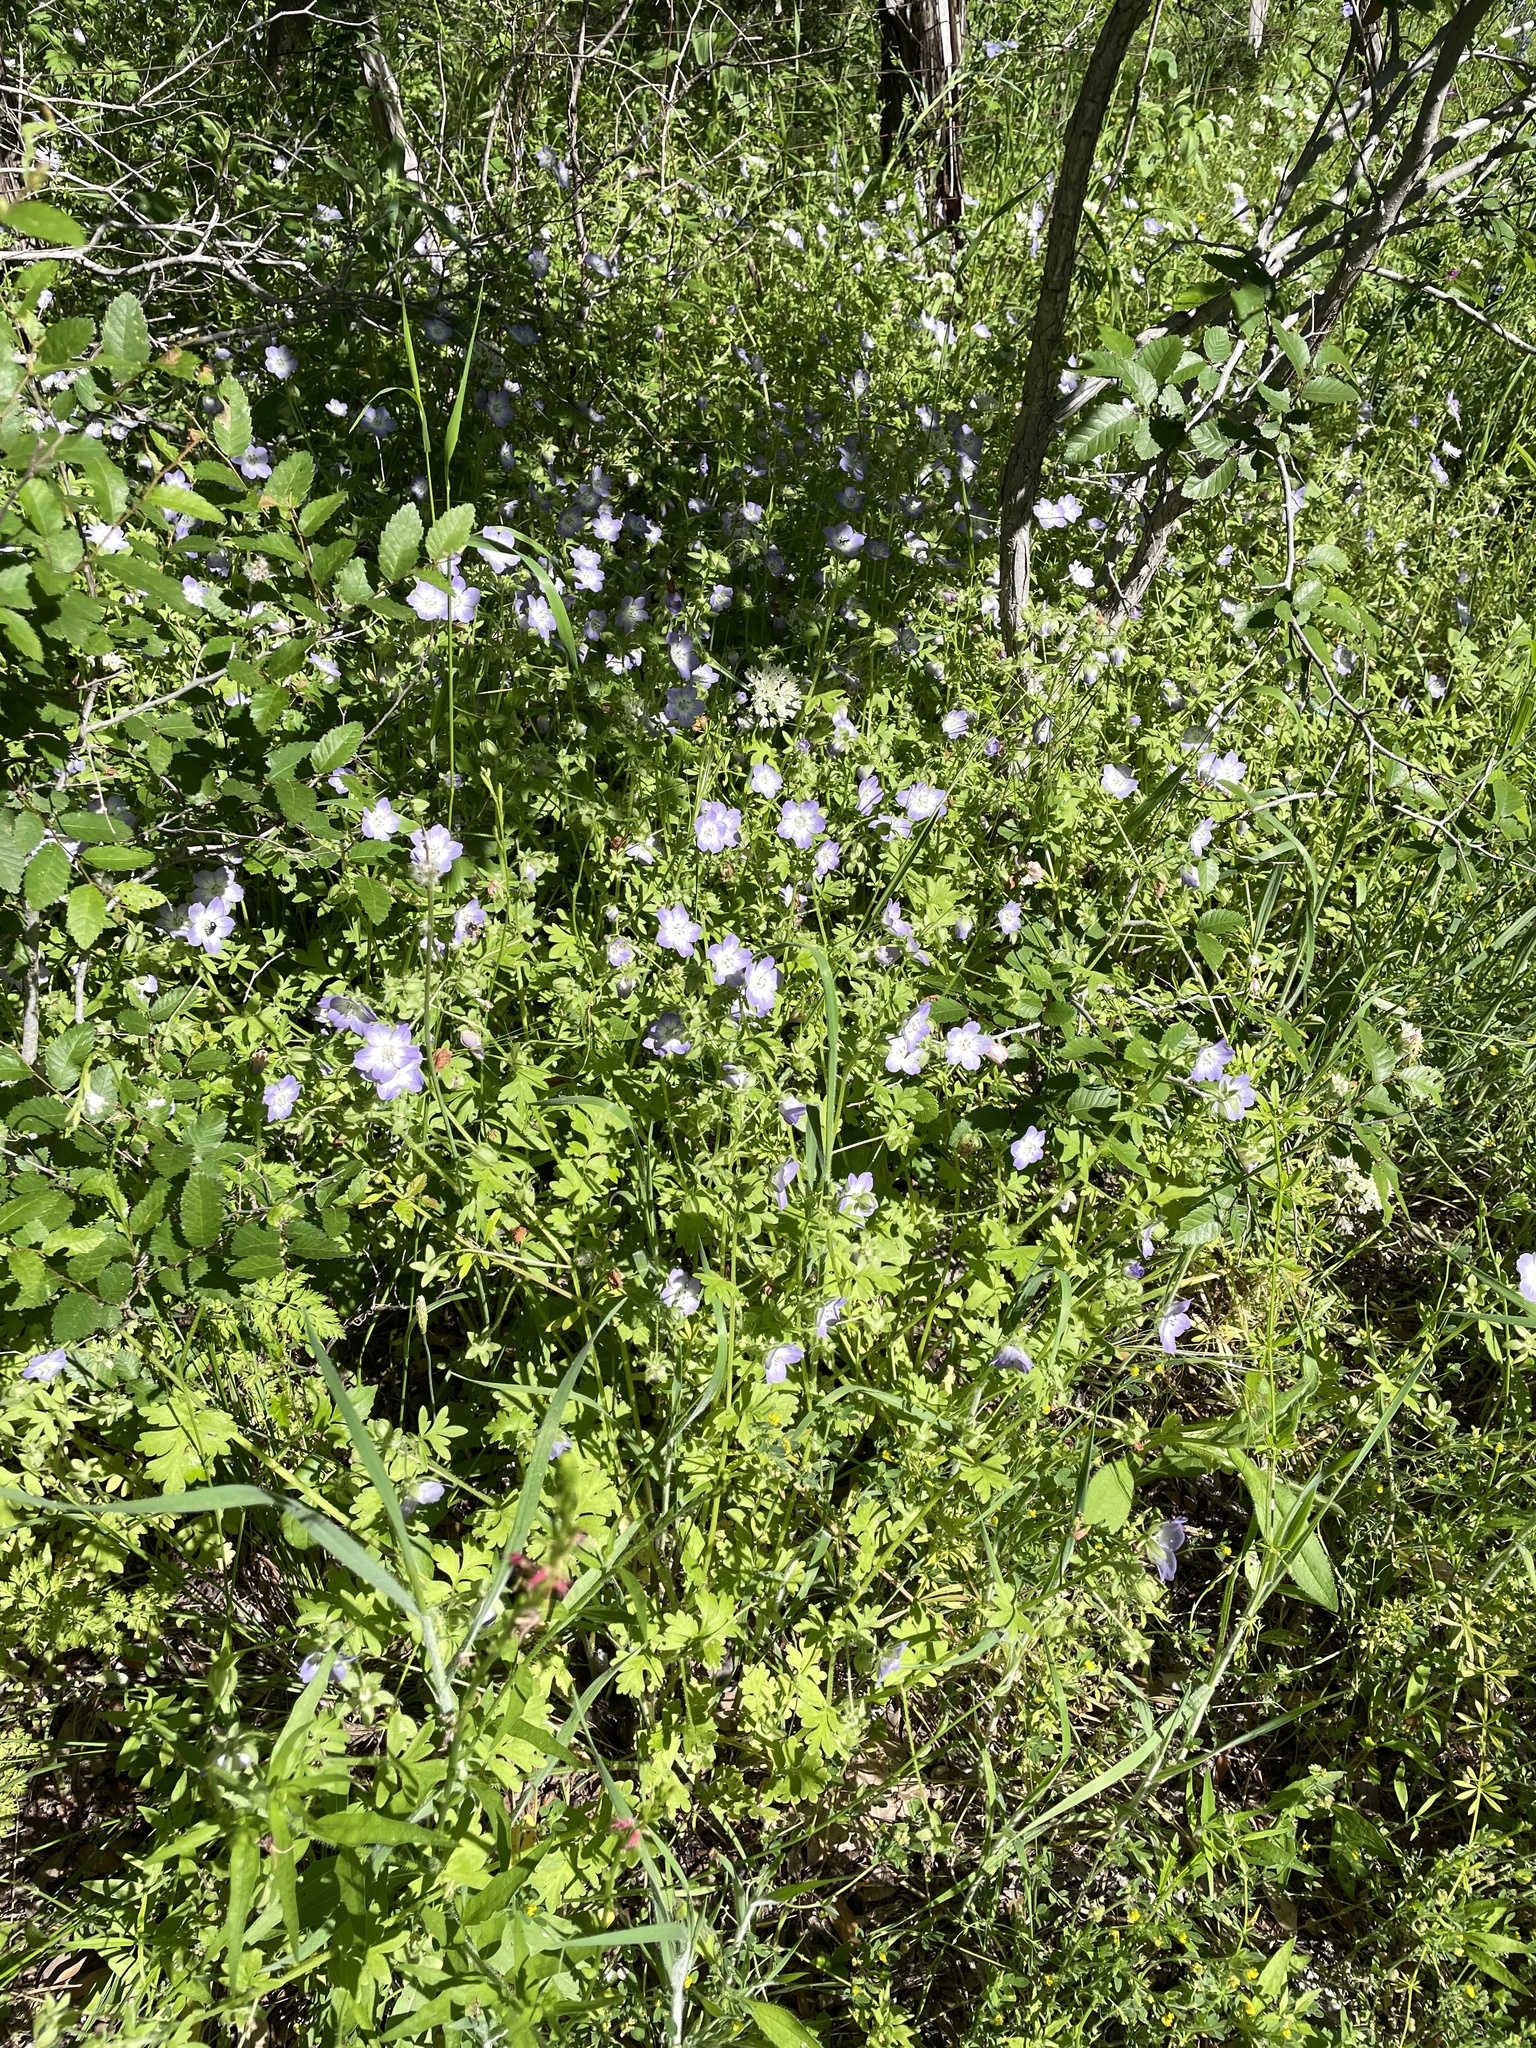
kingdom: Plantae
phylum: Tracheophyta
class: Magnoliopsida
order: Boraginales
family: Hydrophyllaceae
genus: Nemophila
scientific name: Nemophila phacelioides
